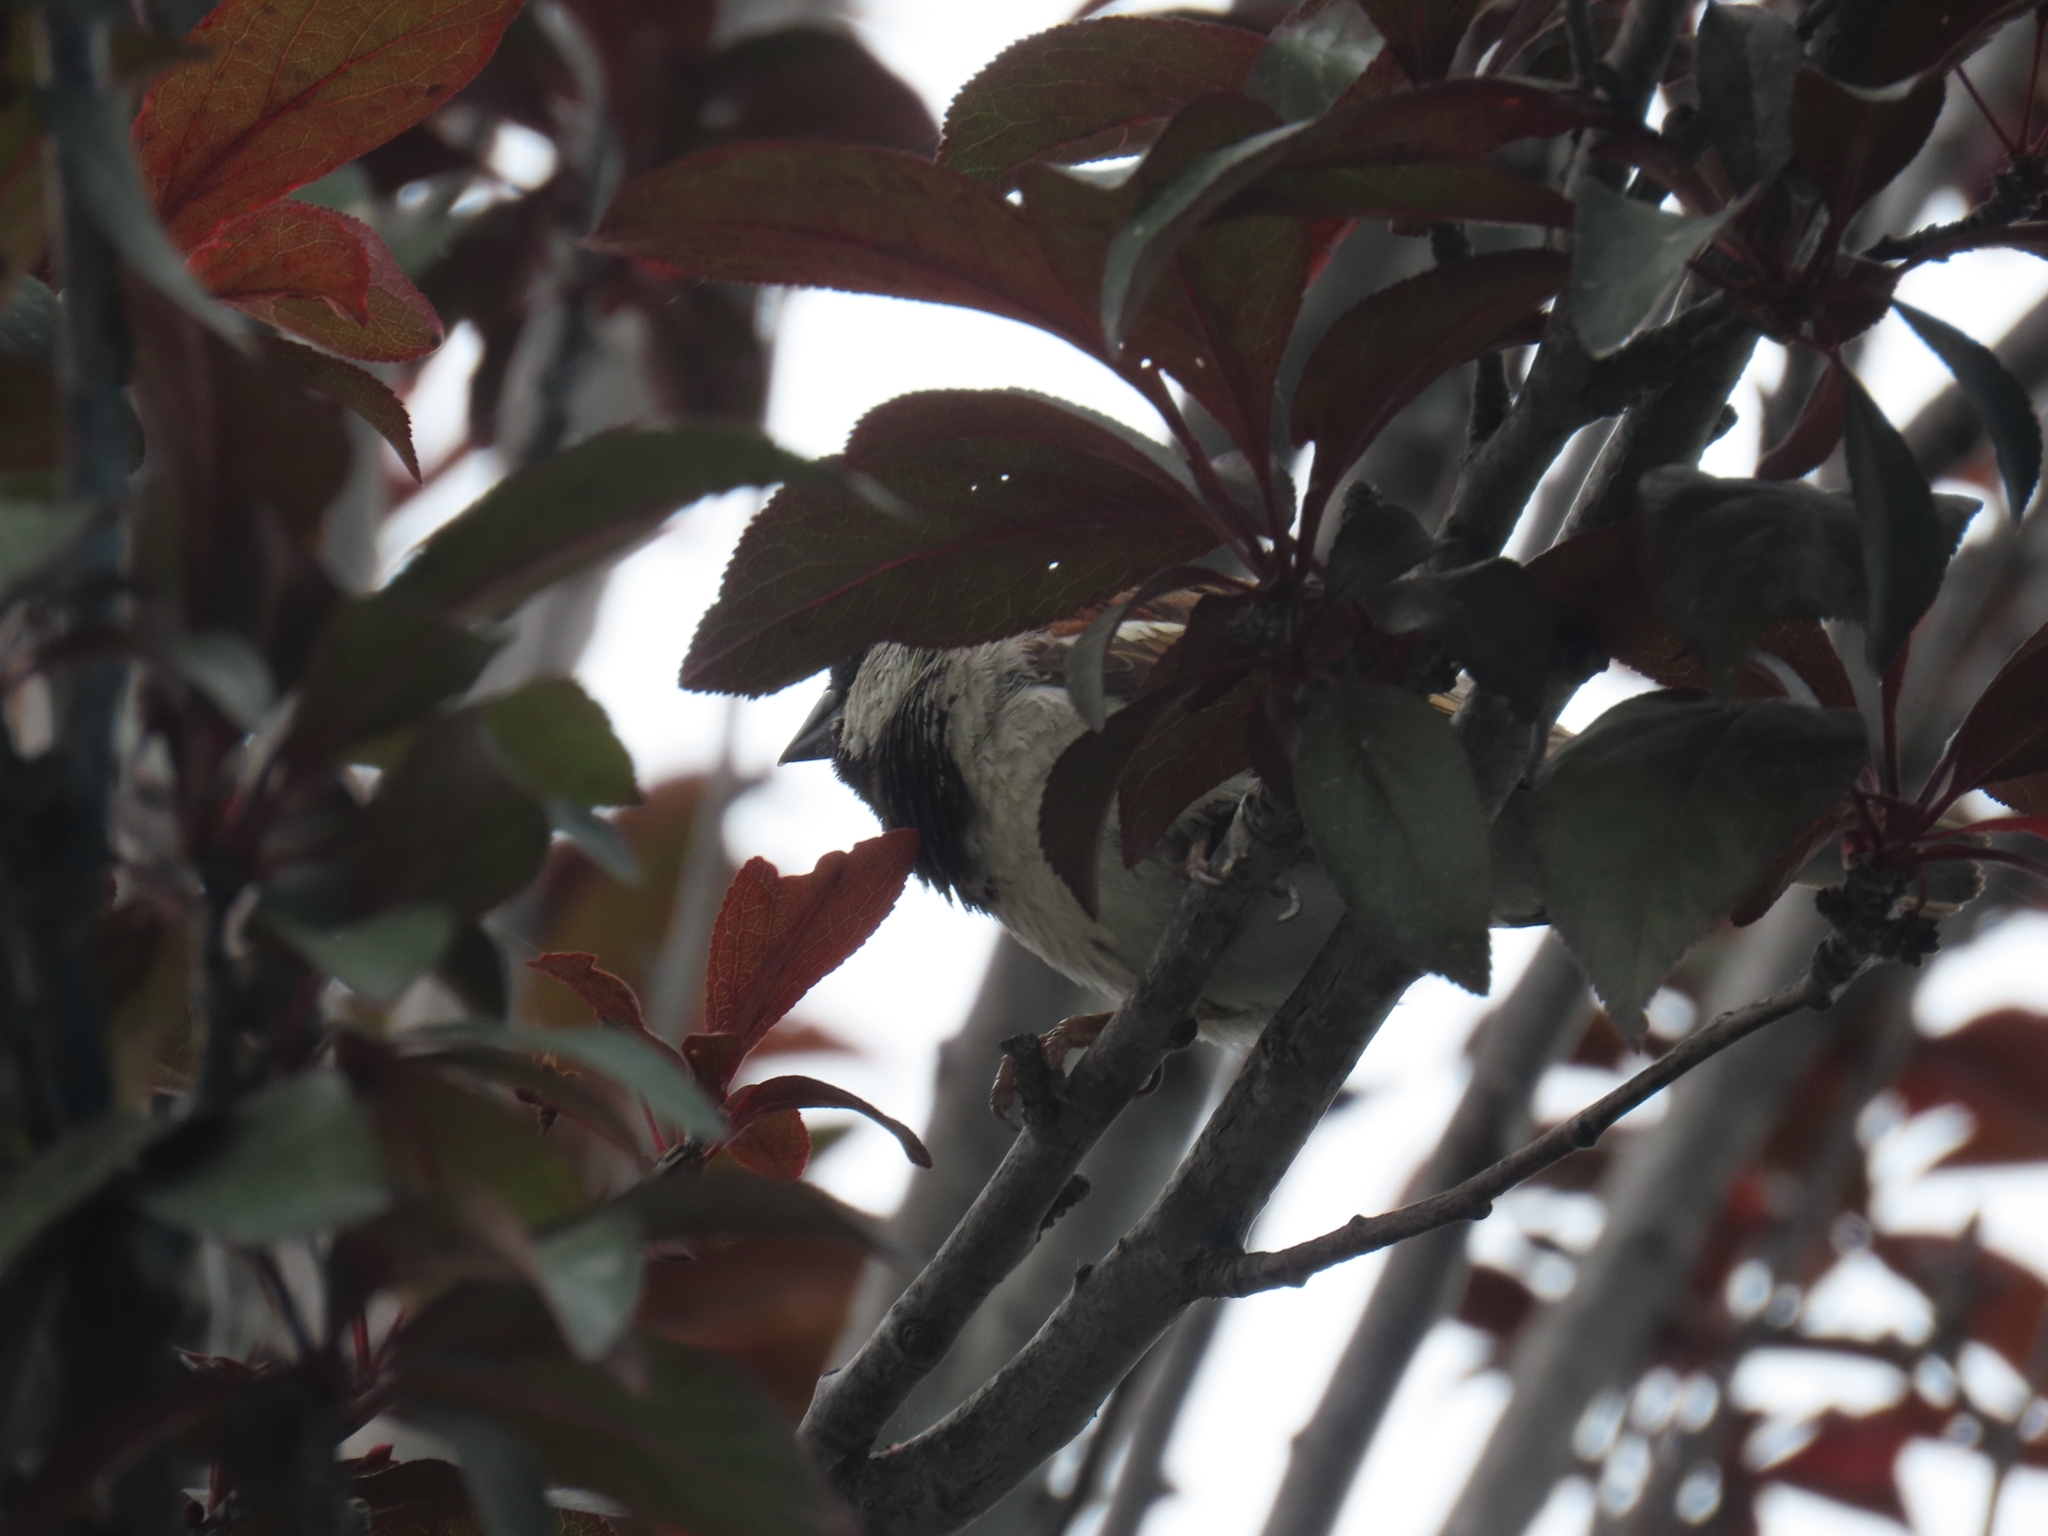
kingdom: Animalia
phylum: Chordata
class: Aves
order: Passeriformes
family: Passeridae
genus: Passer
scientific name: Passer domesticus
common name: House sparrow
